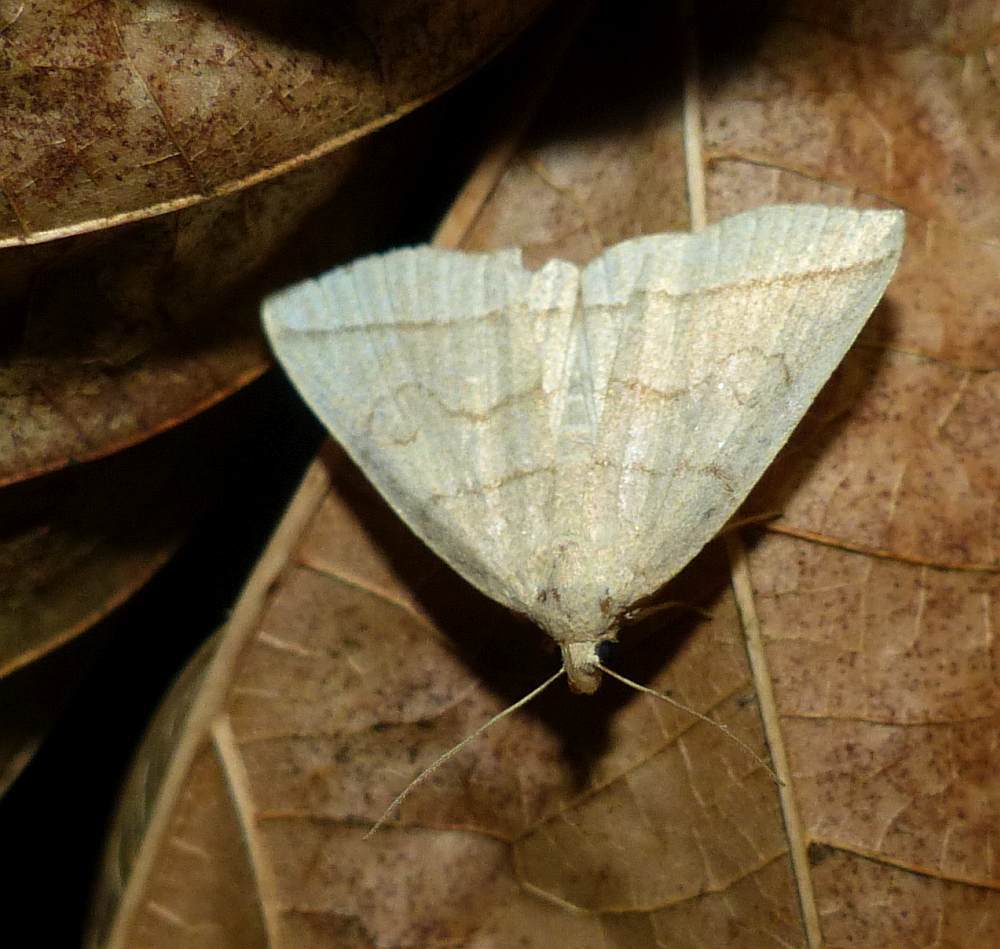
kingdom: Animalia
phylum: Arthropoda
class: Insecta
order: Lepidoptera
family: Erebidae
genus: Zanclognatha
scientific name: Zanclognatha cruralis
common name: Early fan-foot
